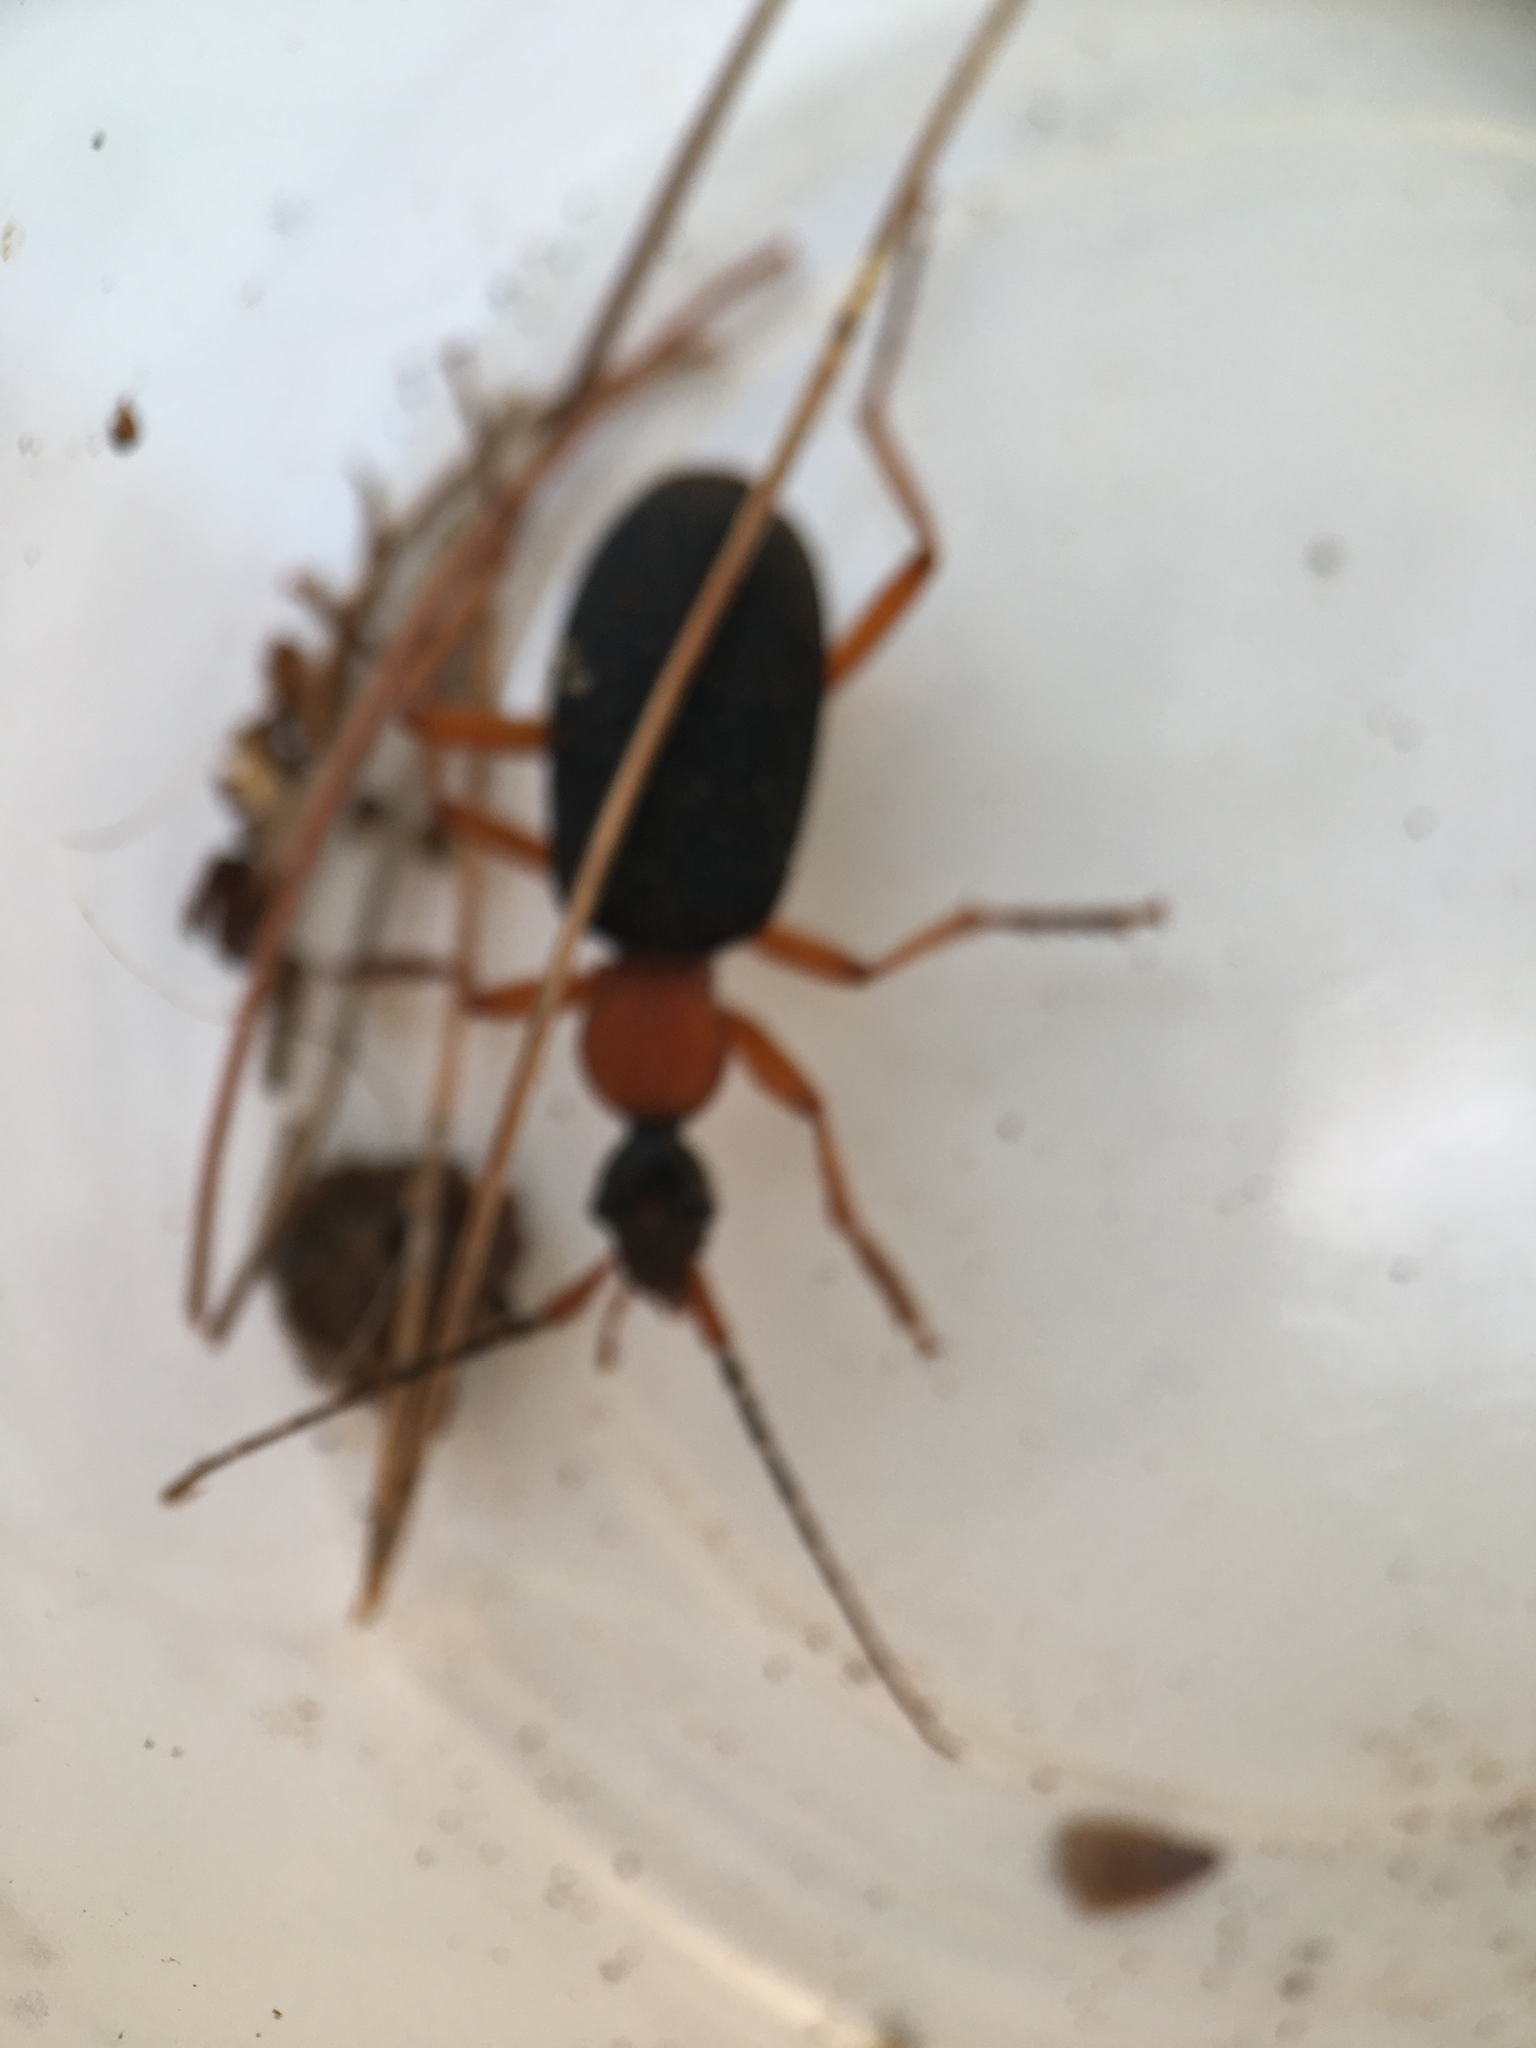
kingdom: Animalia
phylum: Arthropoda
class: Insecta
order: Coleoptera
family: Carabidae
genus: Galerita
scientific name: Galerita bicolor
